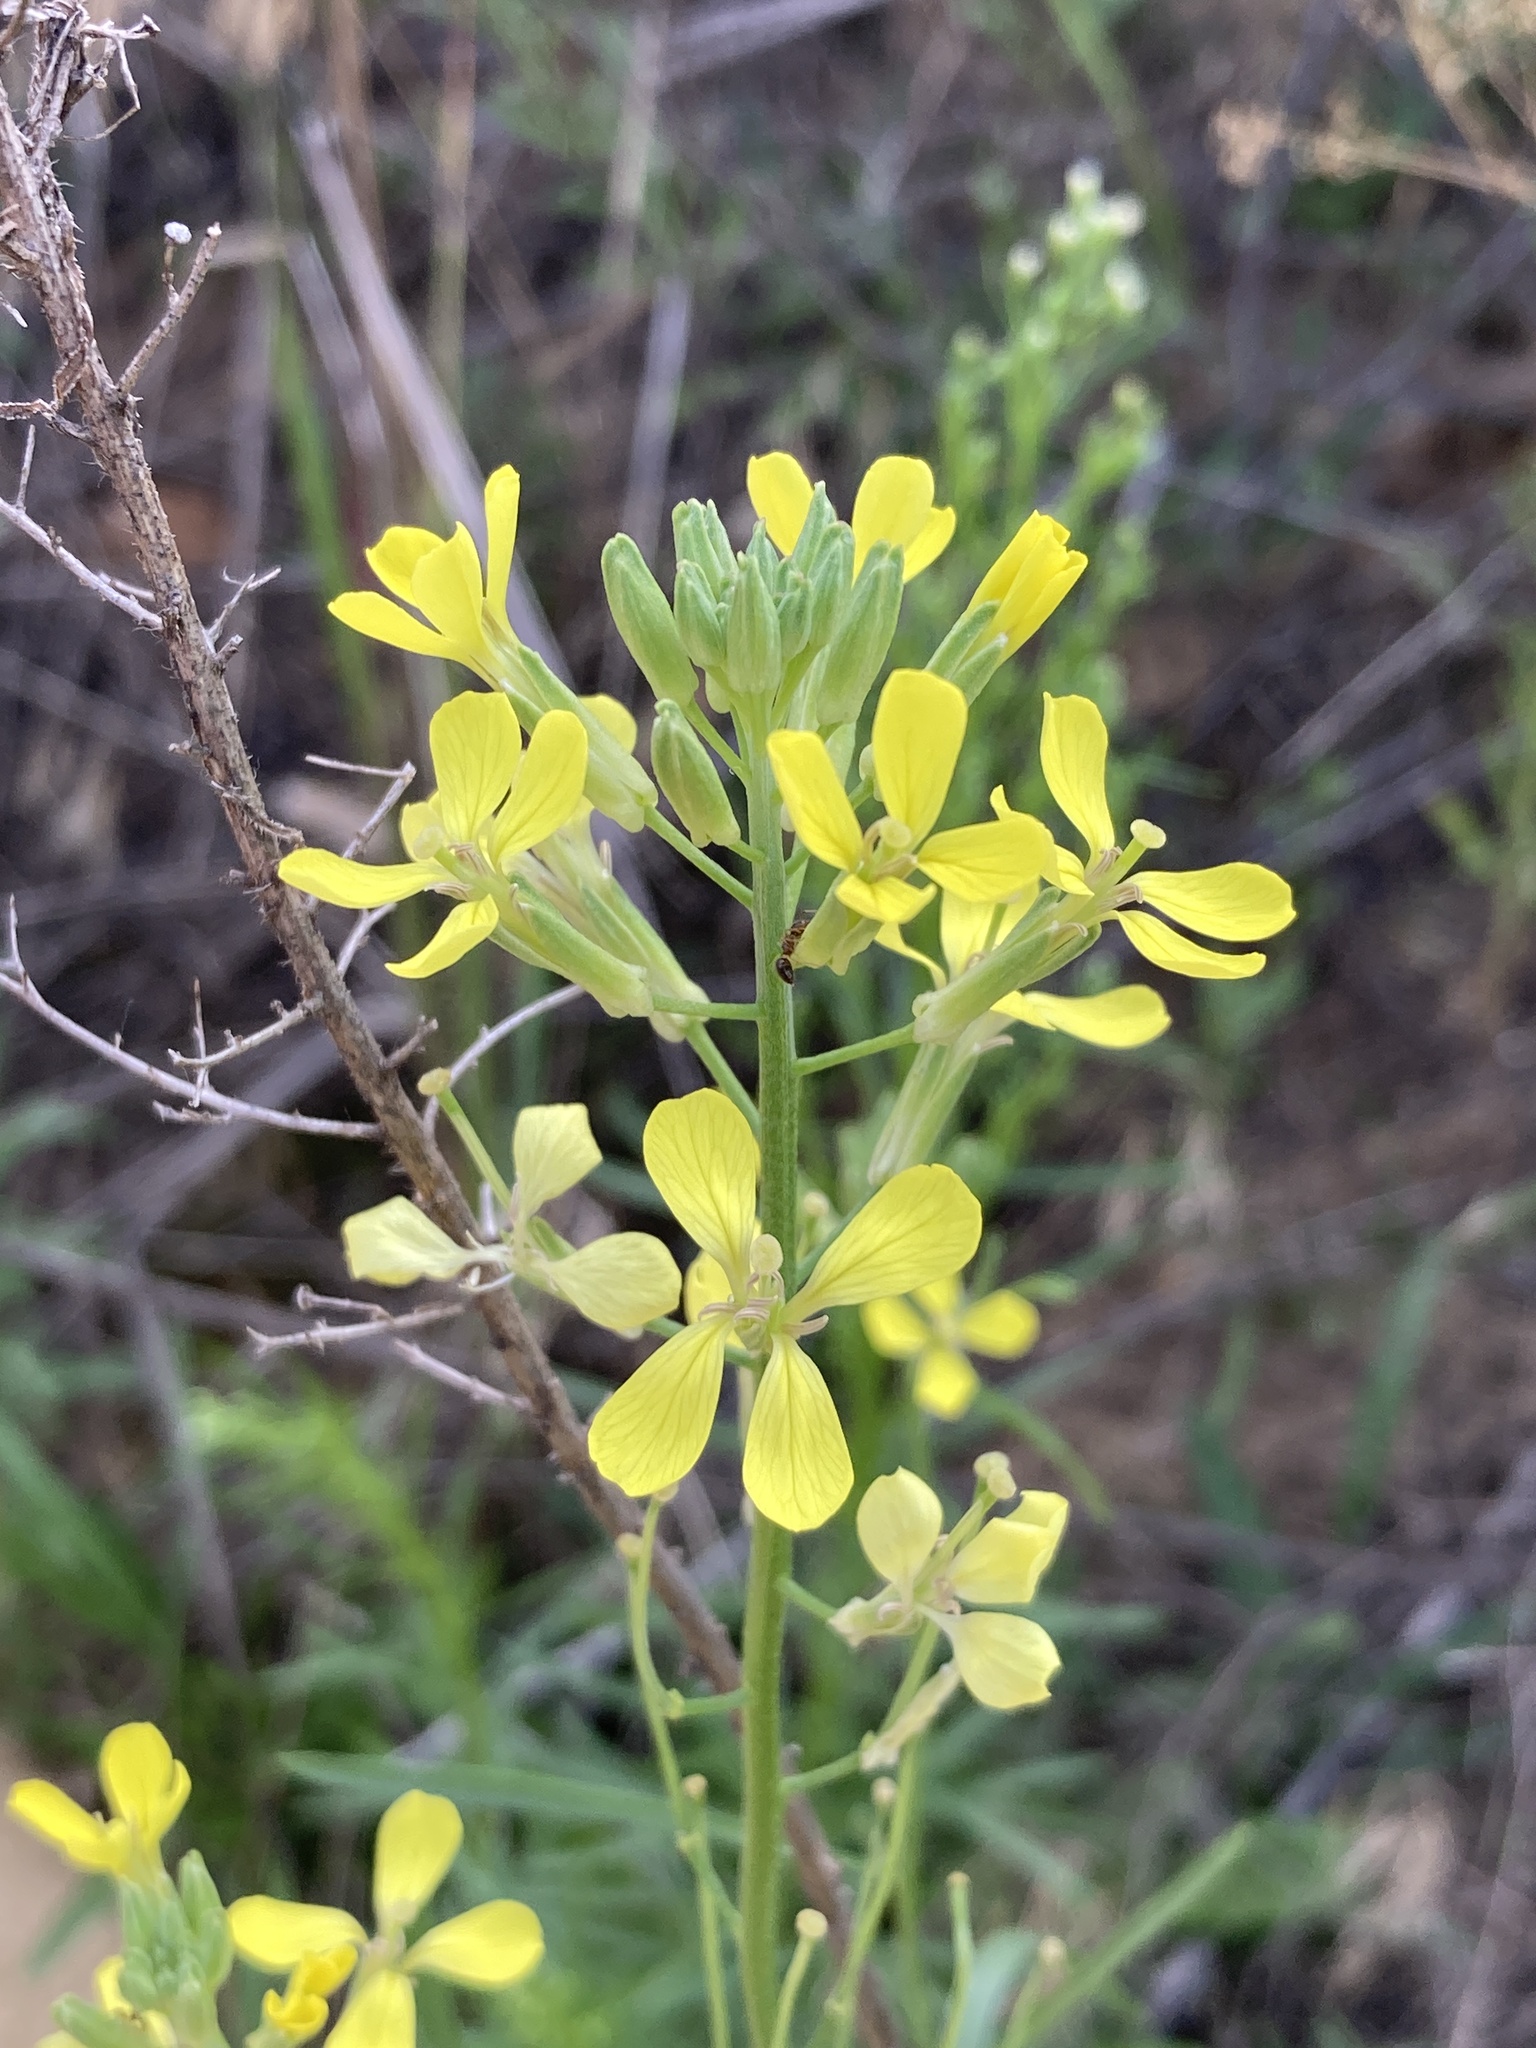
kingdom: Plantae
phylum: Tracheophyta
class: Magnoliopsida
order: Brassicales
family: Brassicaceae
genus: Erysimum
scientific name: Erysimum diffusum
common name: Diffuse wallflower
